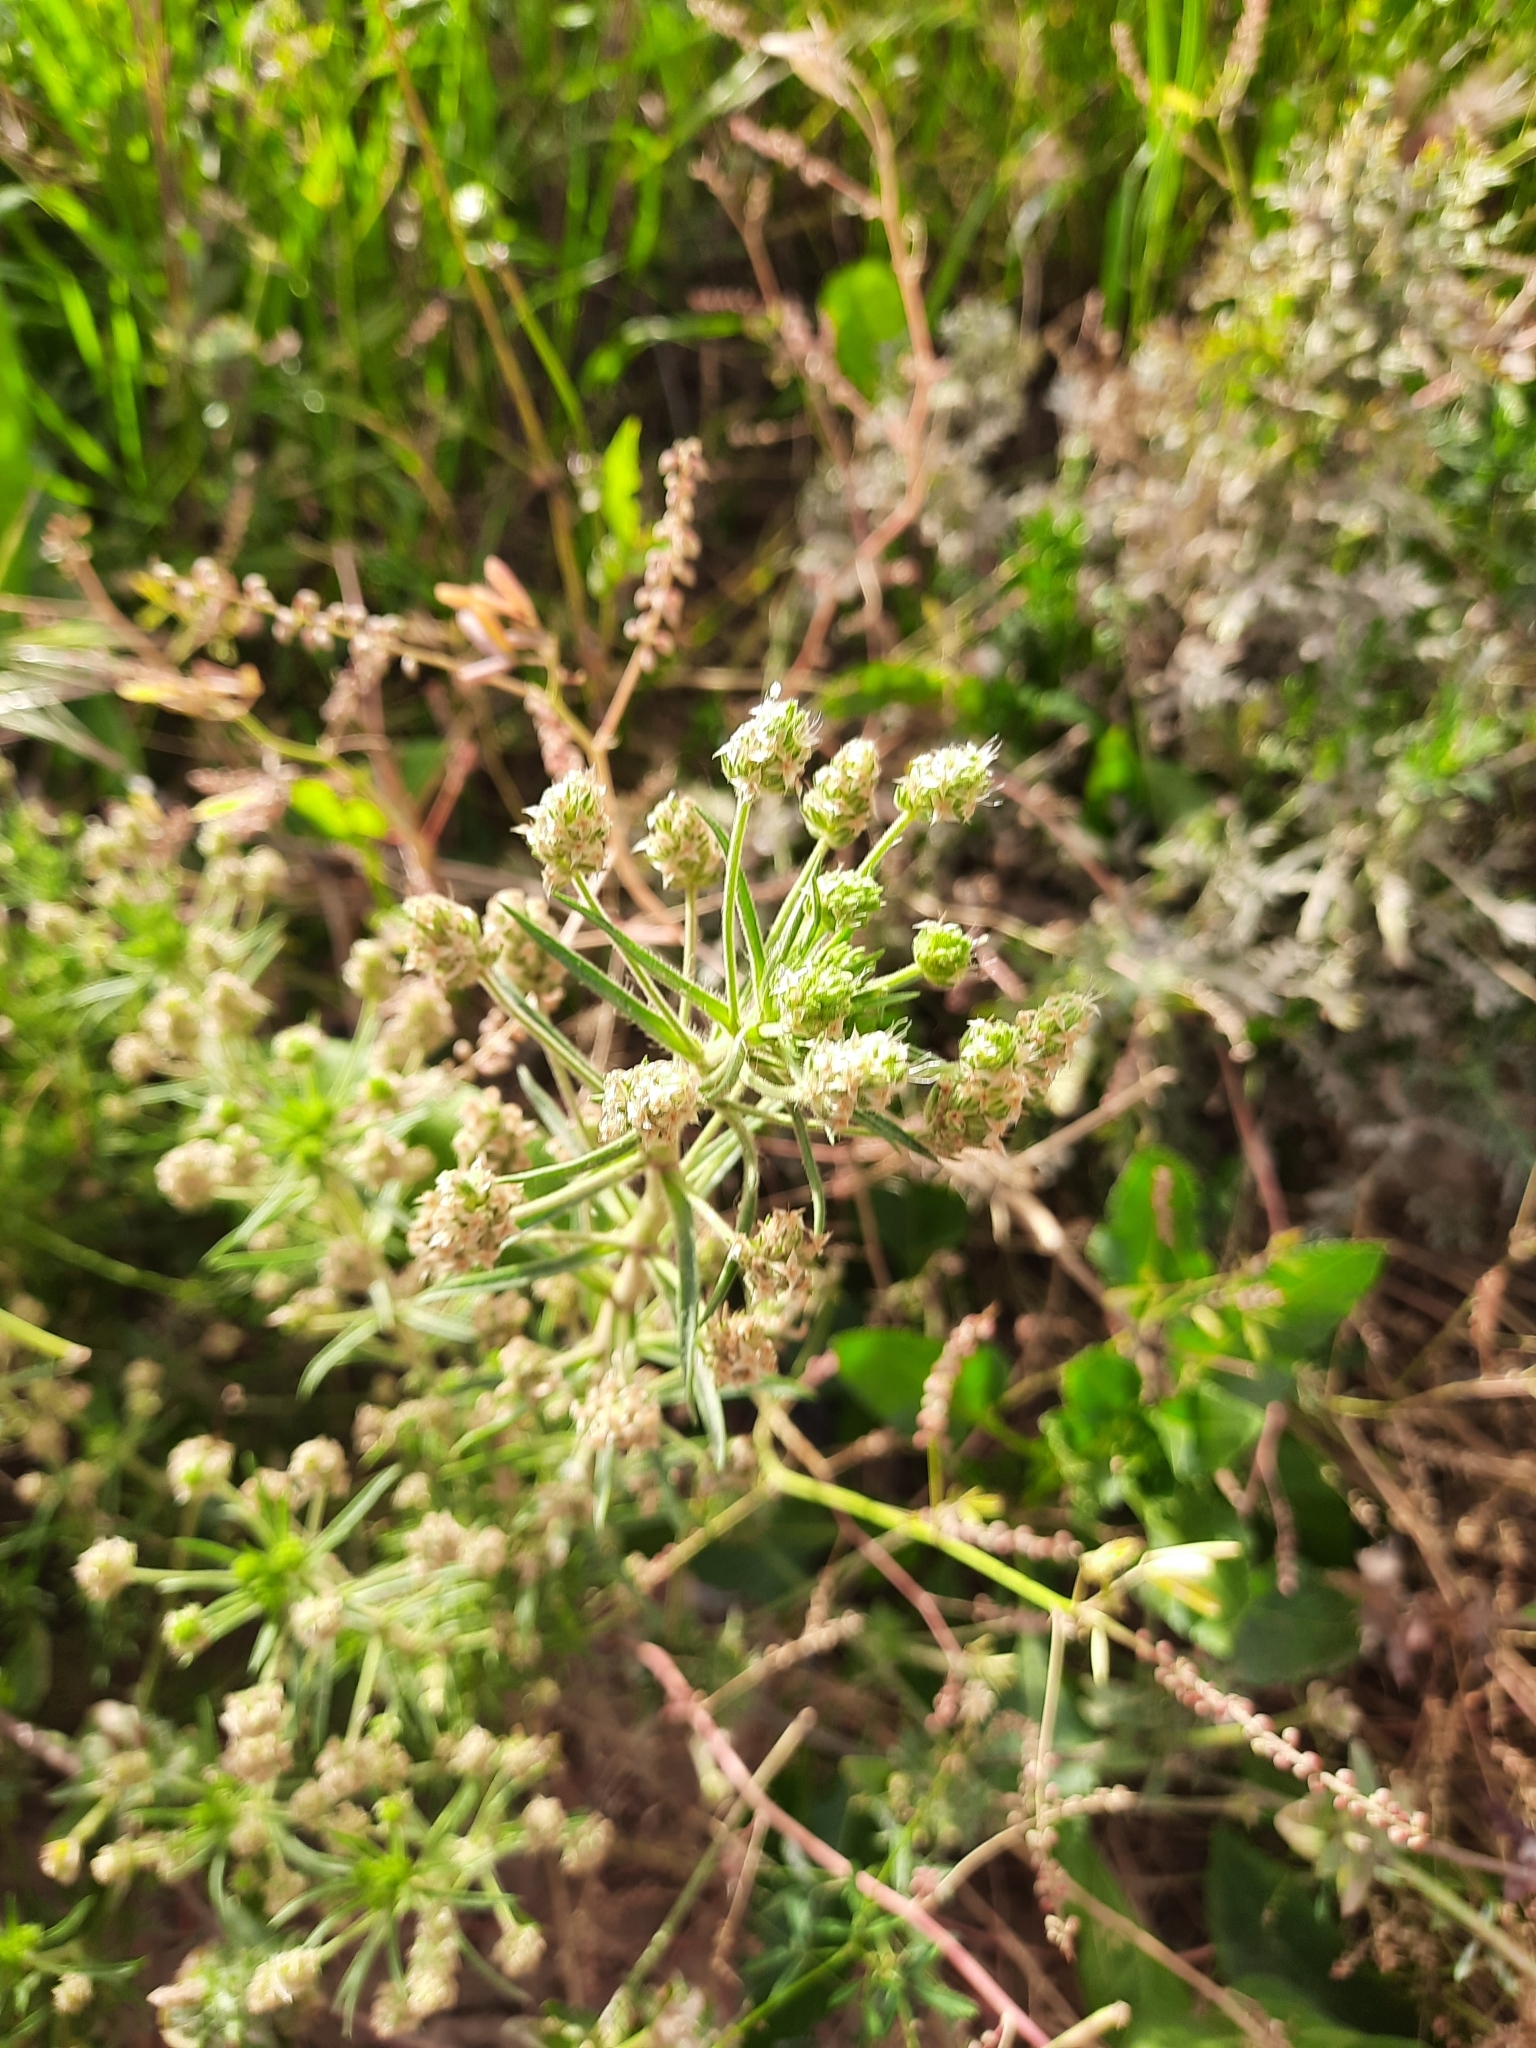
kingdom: Plantae
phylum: Tracheophyta
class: Magnoliopsida
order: Lamiales
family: Plantaginaceae
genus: Plantago
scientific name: Plantago afra
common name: Glandular plantain
